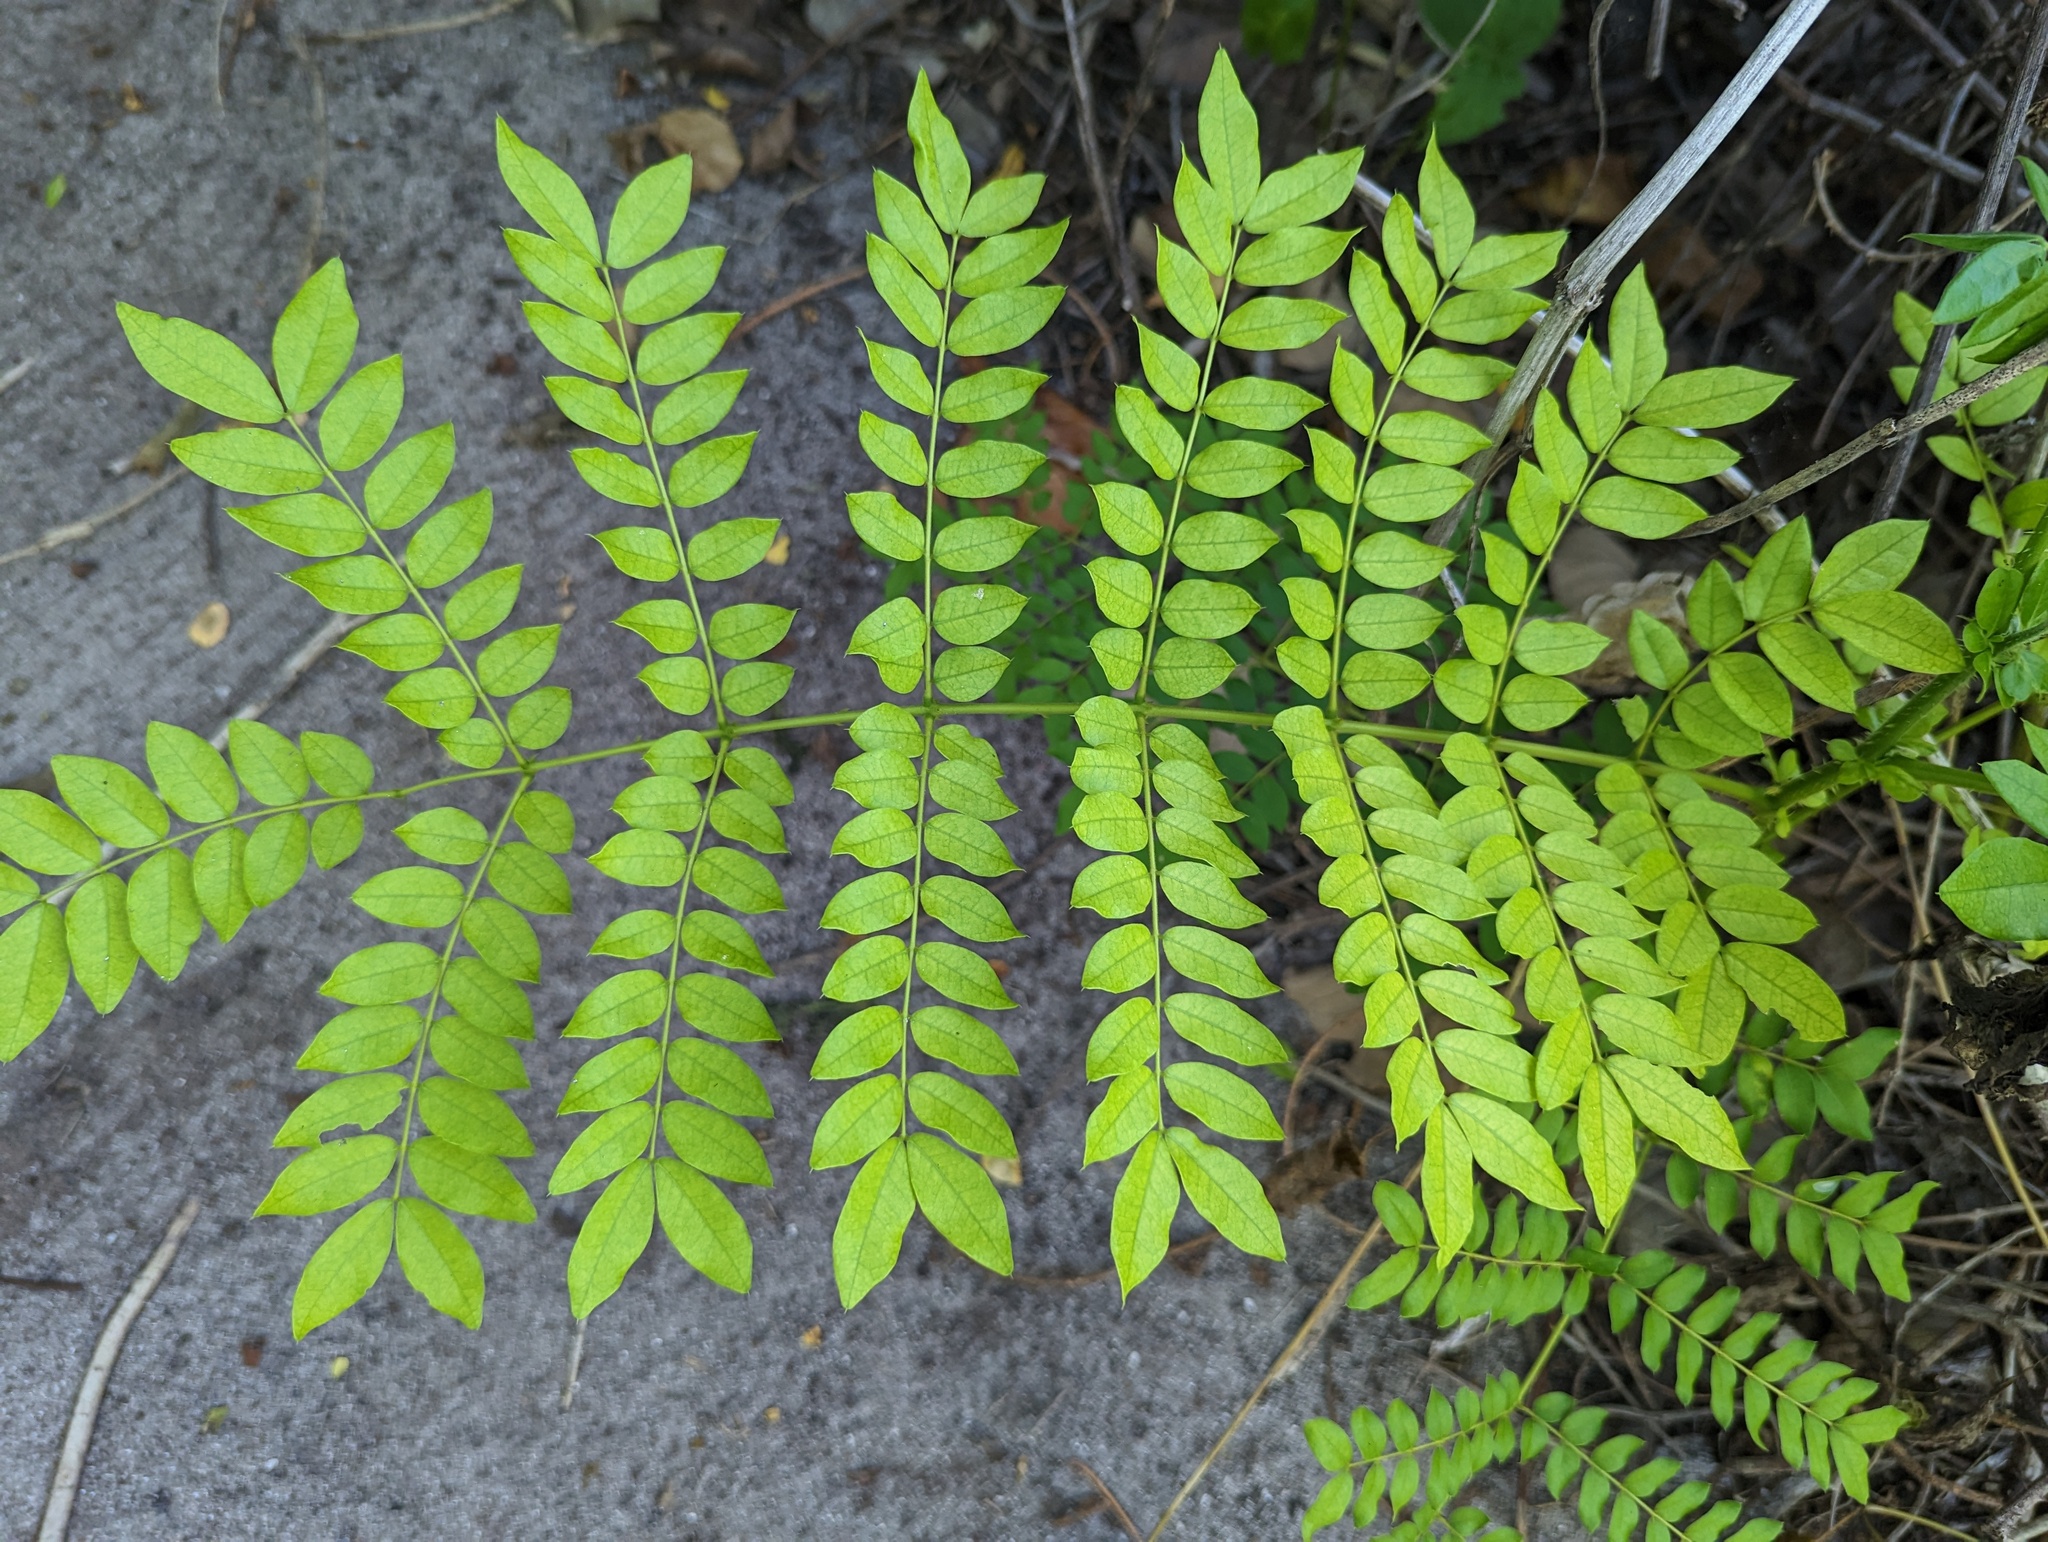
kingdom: Plantae
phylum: Tracheophyta
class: Magnoliopsida
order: Fabales
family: Fabaceae
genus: Guilandina
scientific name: Guilandina bonduc
